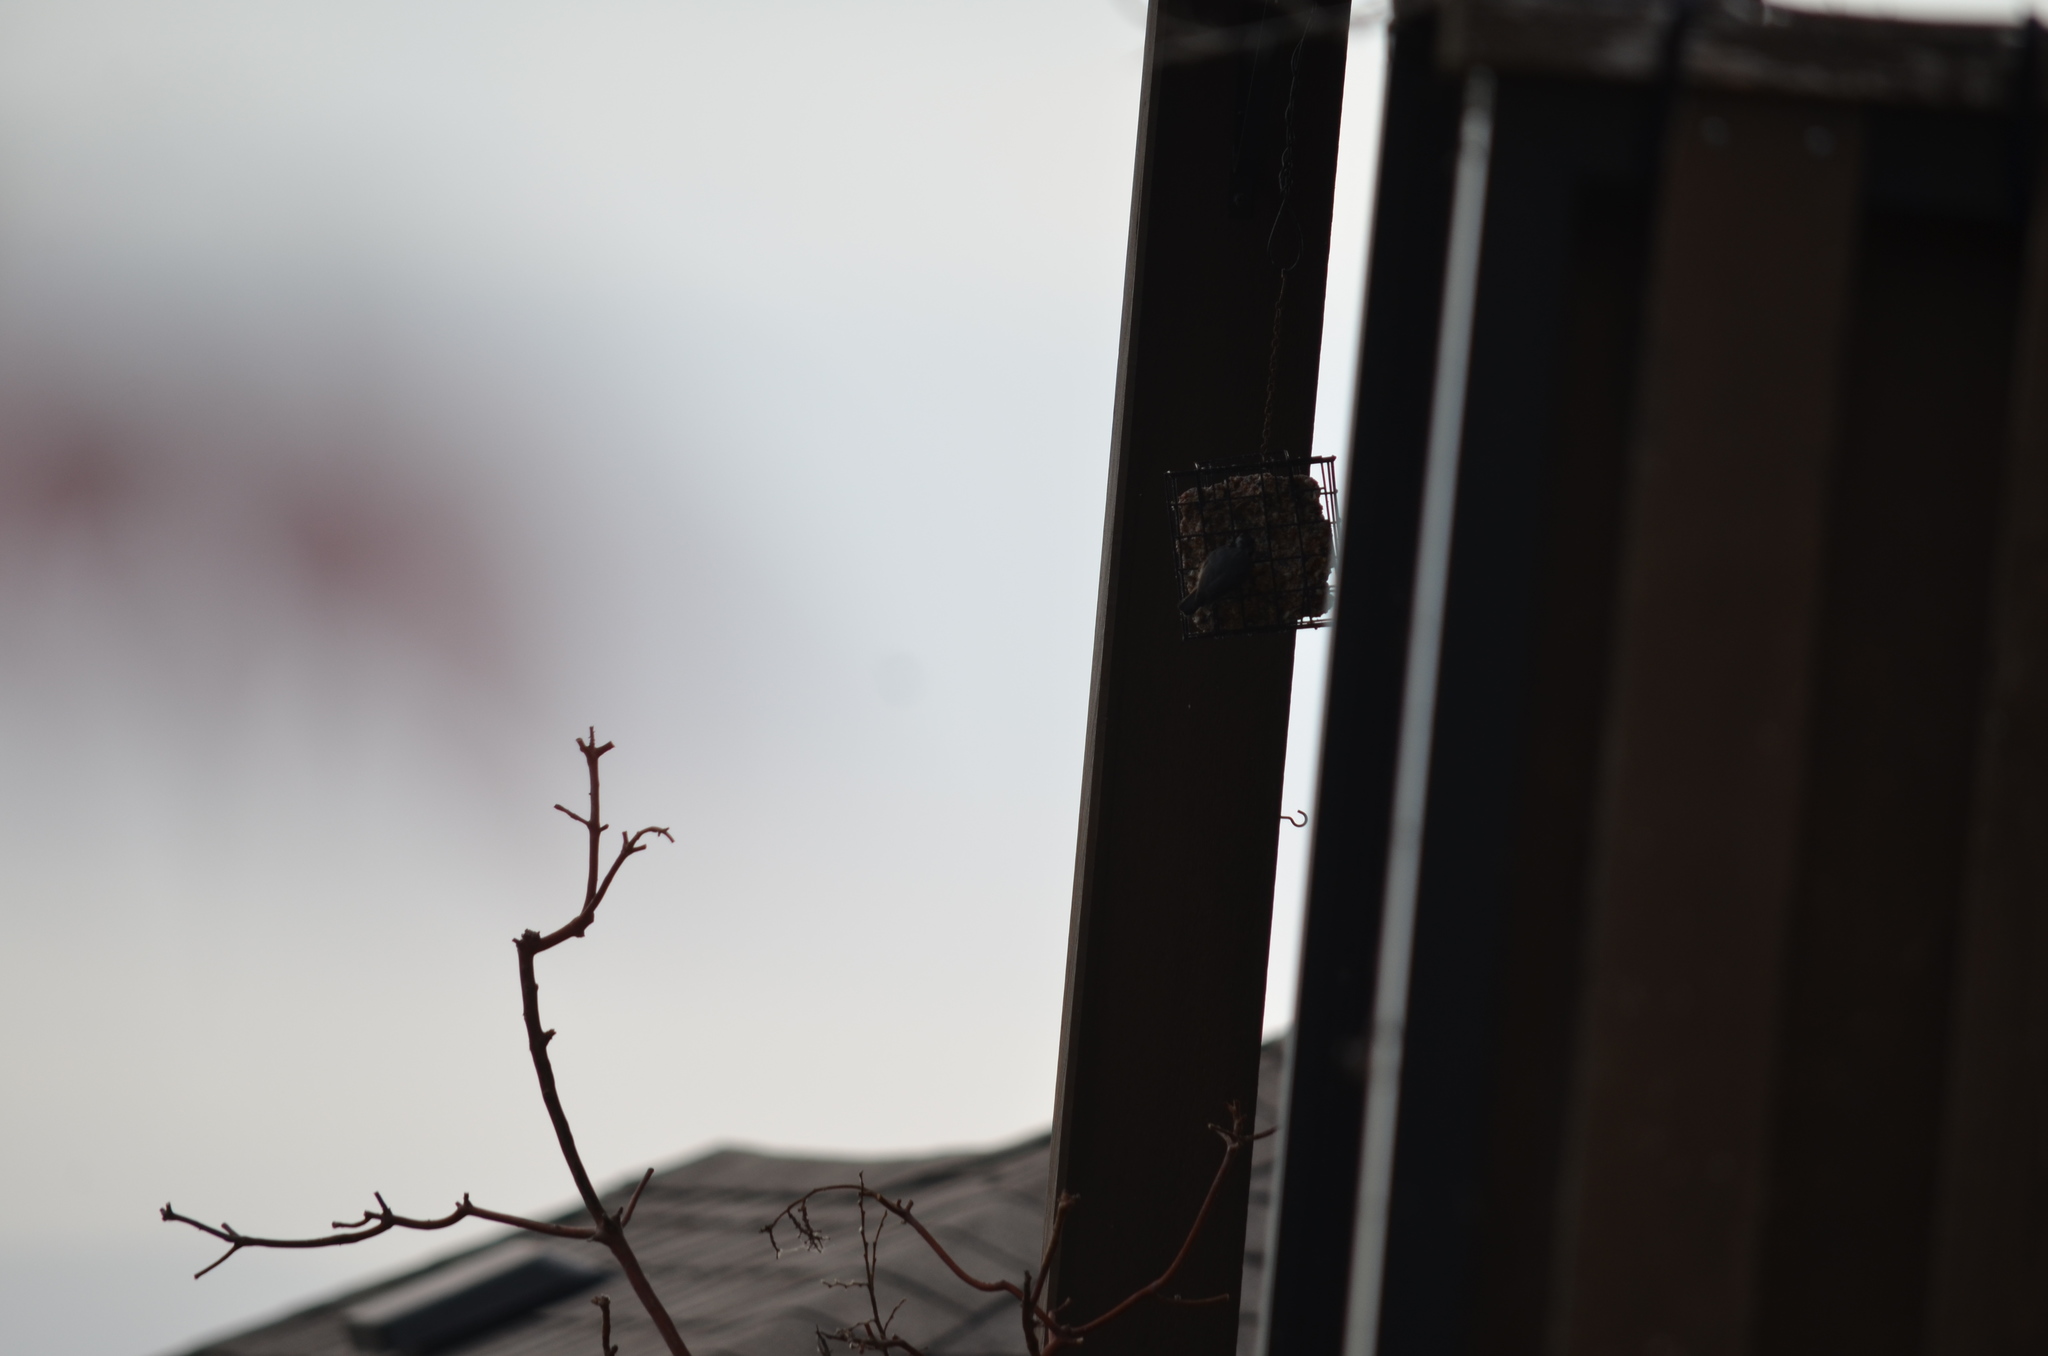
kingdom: Animalia
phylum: Chordata
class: Aves
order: Passeriformes
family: Sittidae
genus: Sitta
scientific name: Sitta canadensis
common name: Red-breasted nuthatch
